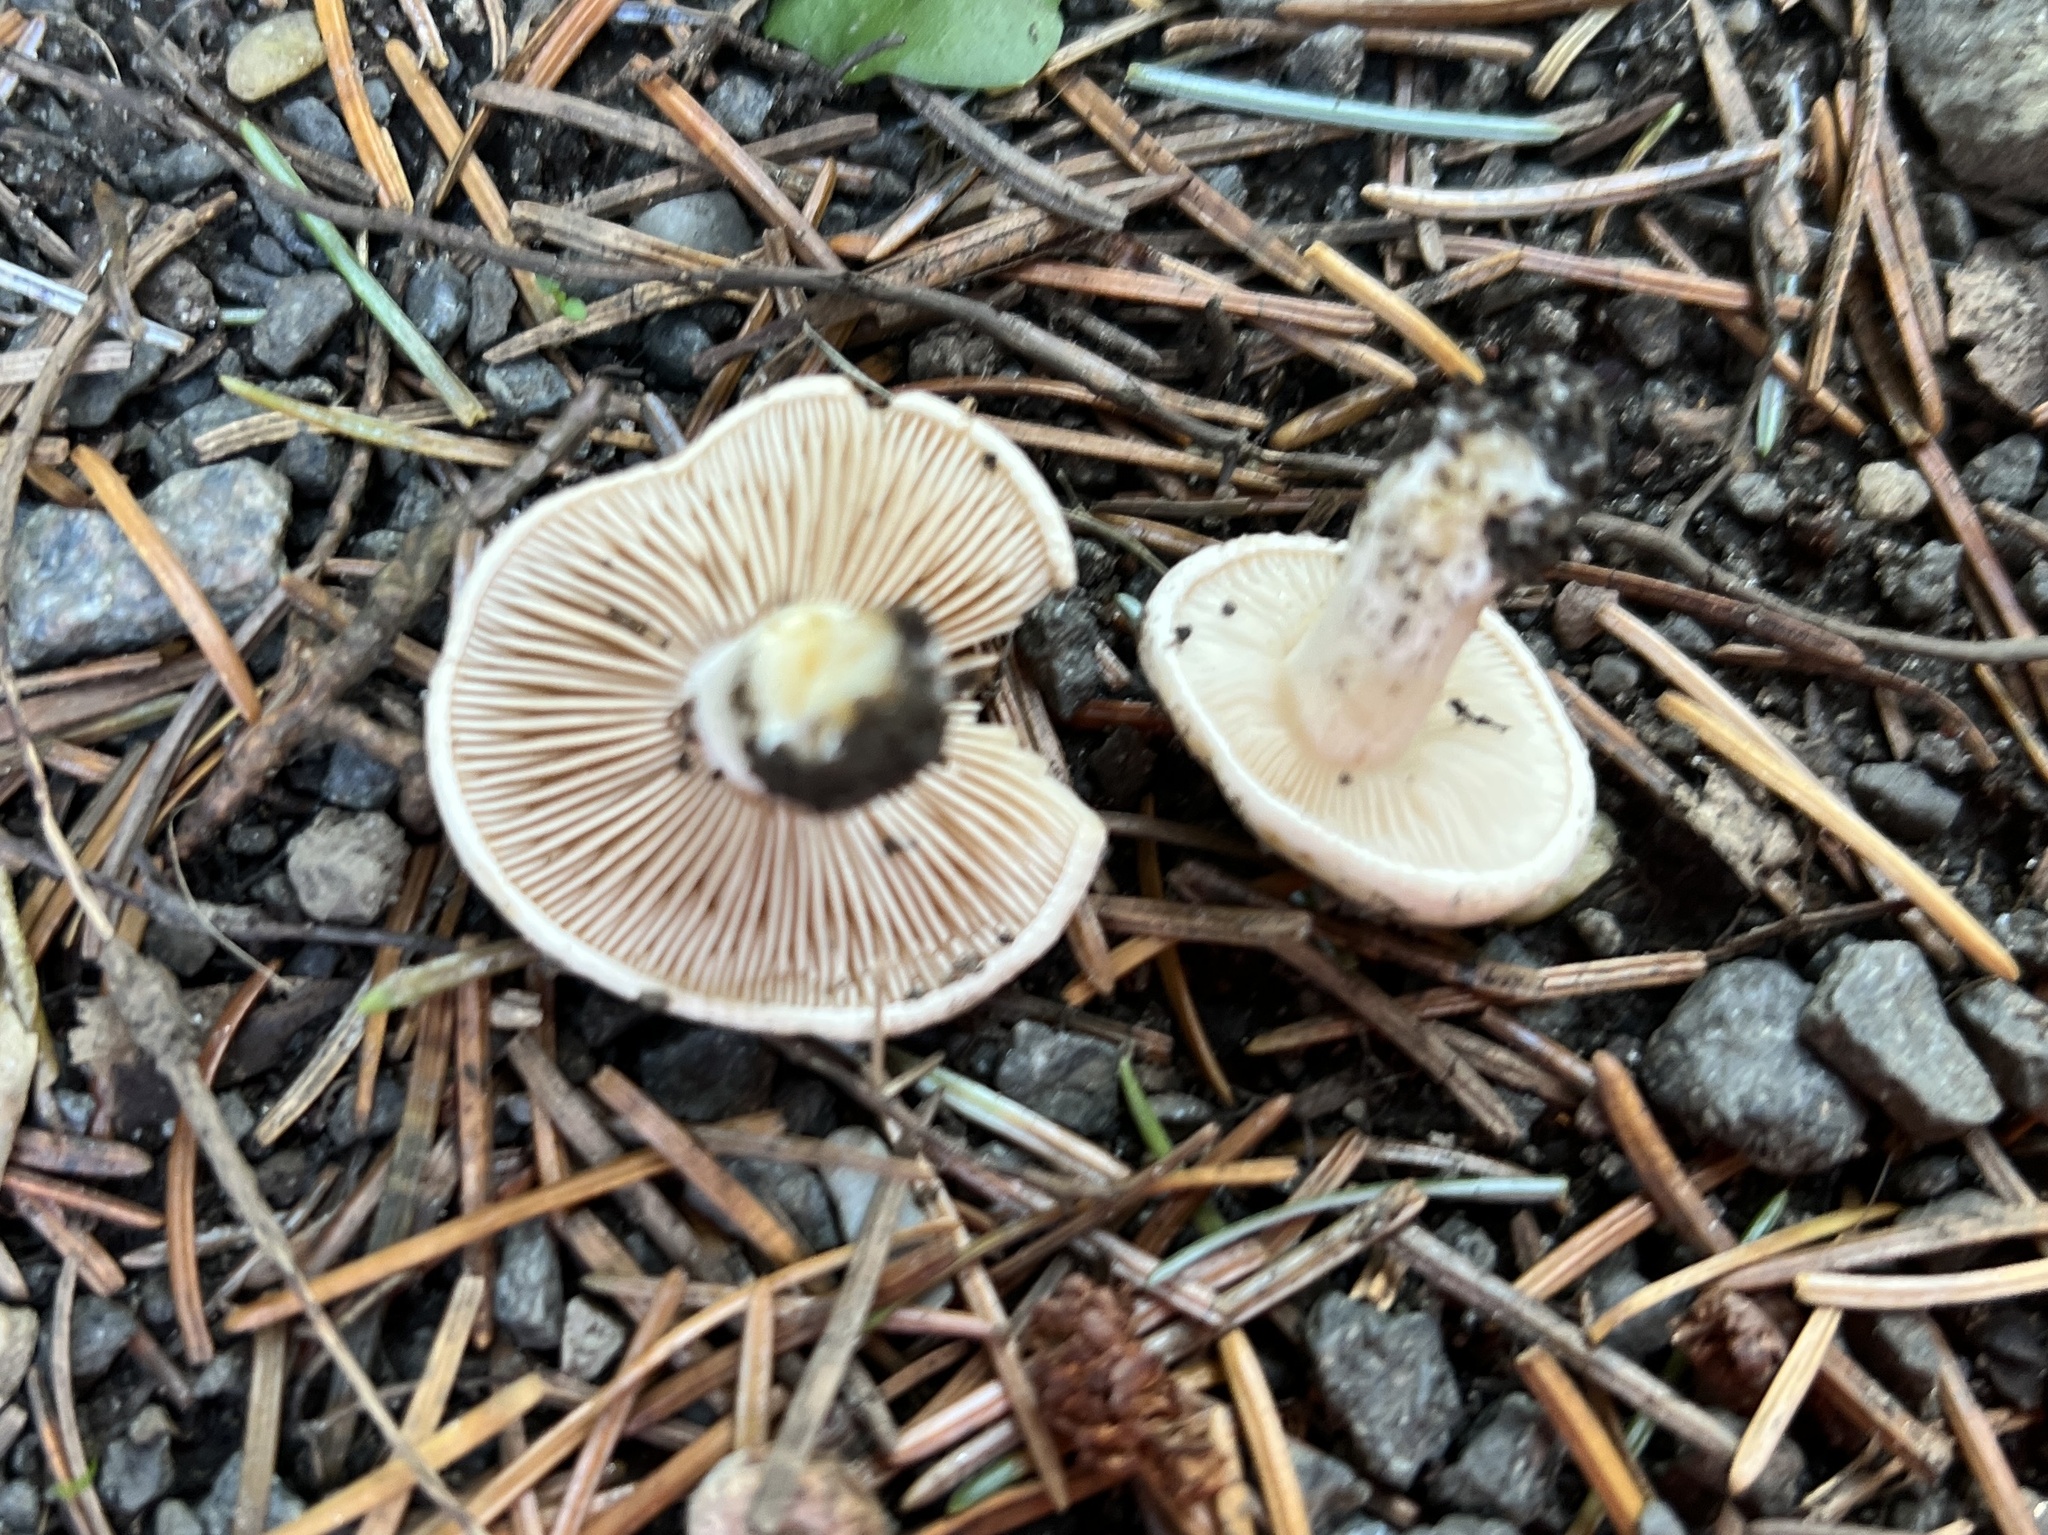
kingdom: Fungi
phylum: Basidiomycota
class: Agaricomycetes
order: Agaricales
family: Hymenogastraceae
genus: Hebeloma
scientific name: Hebeloma sordidum
